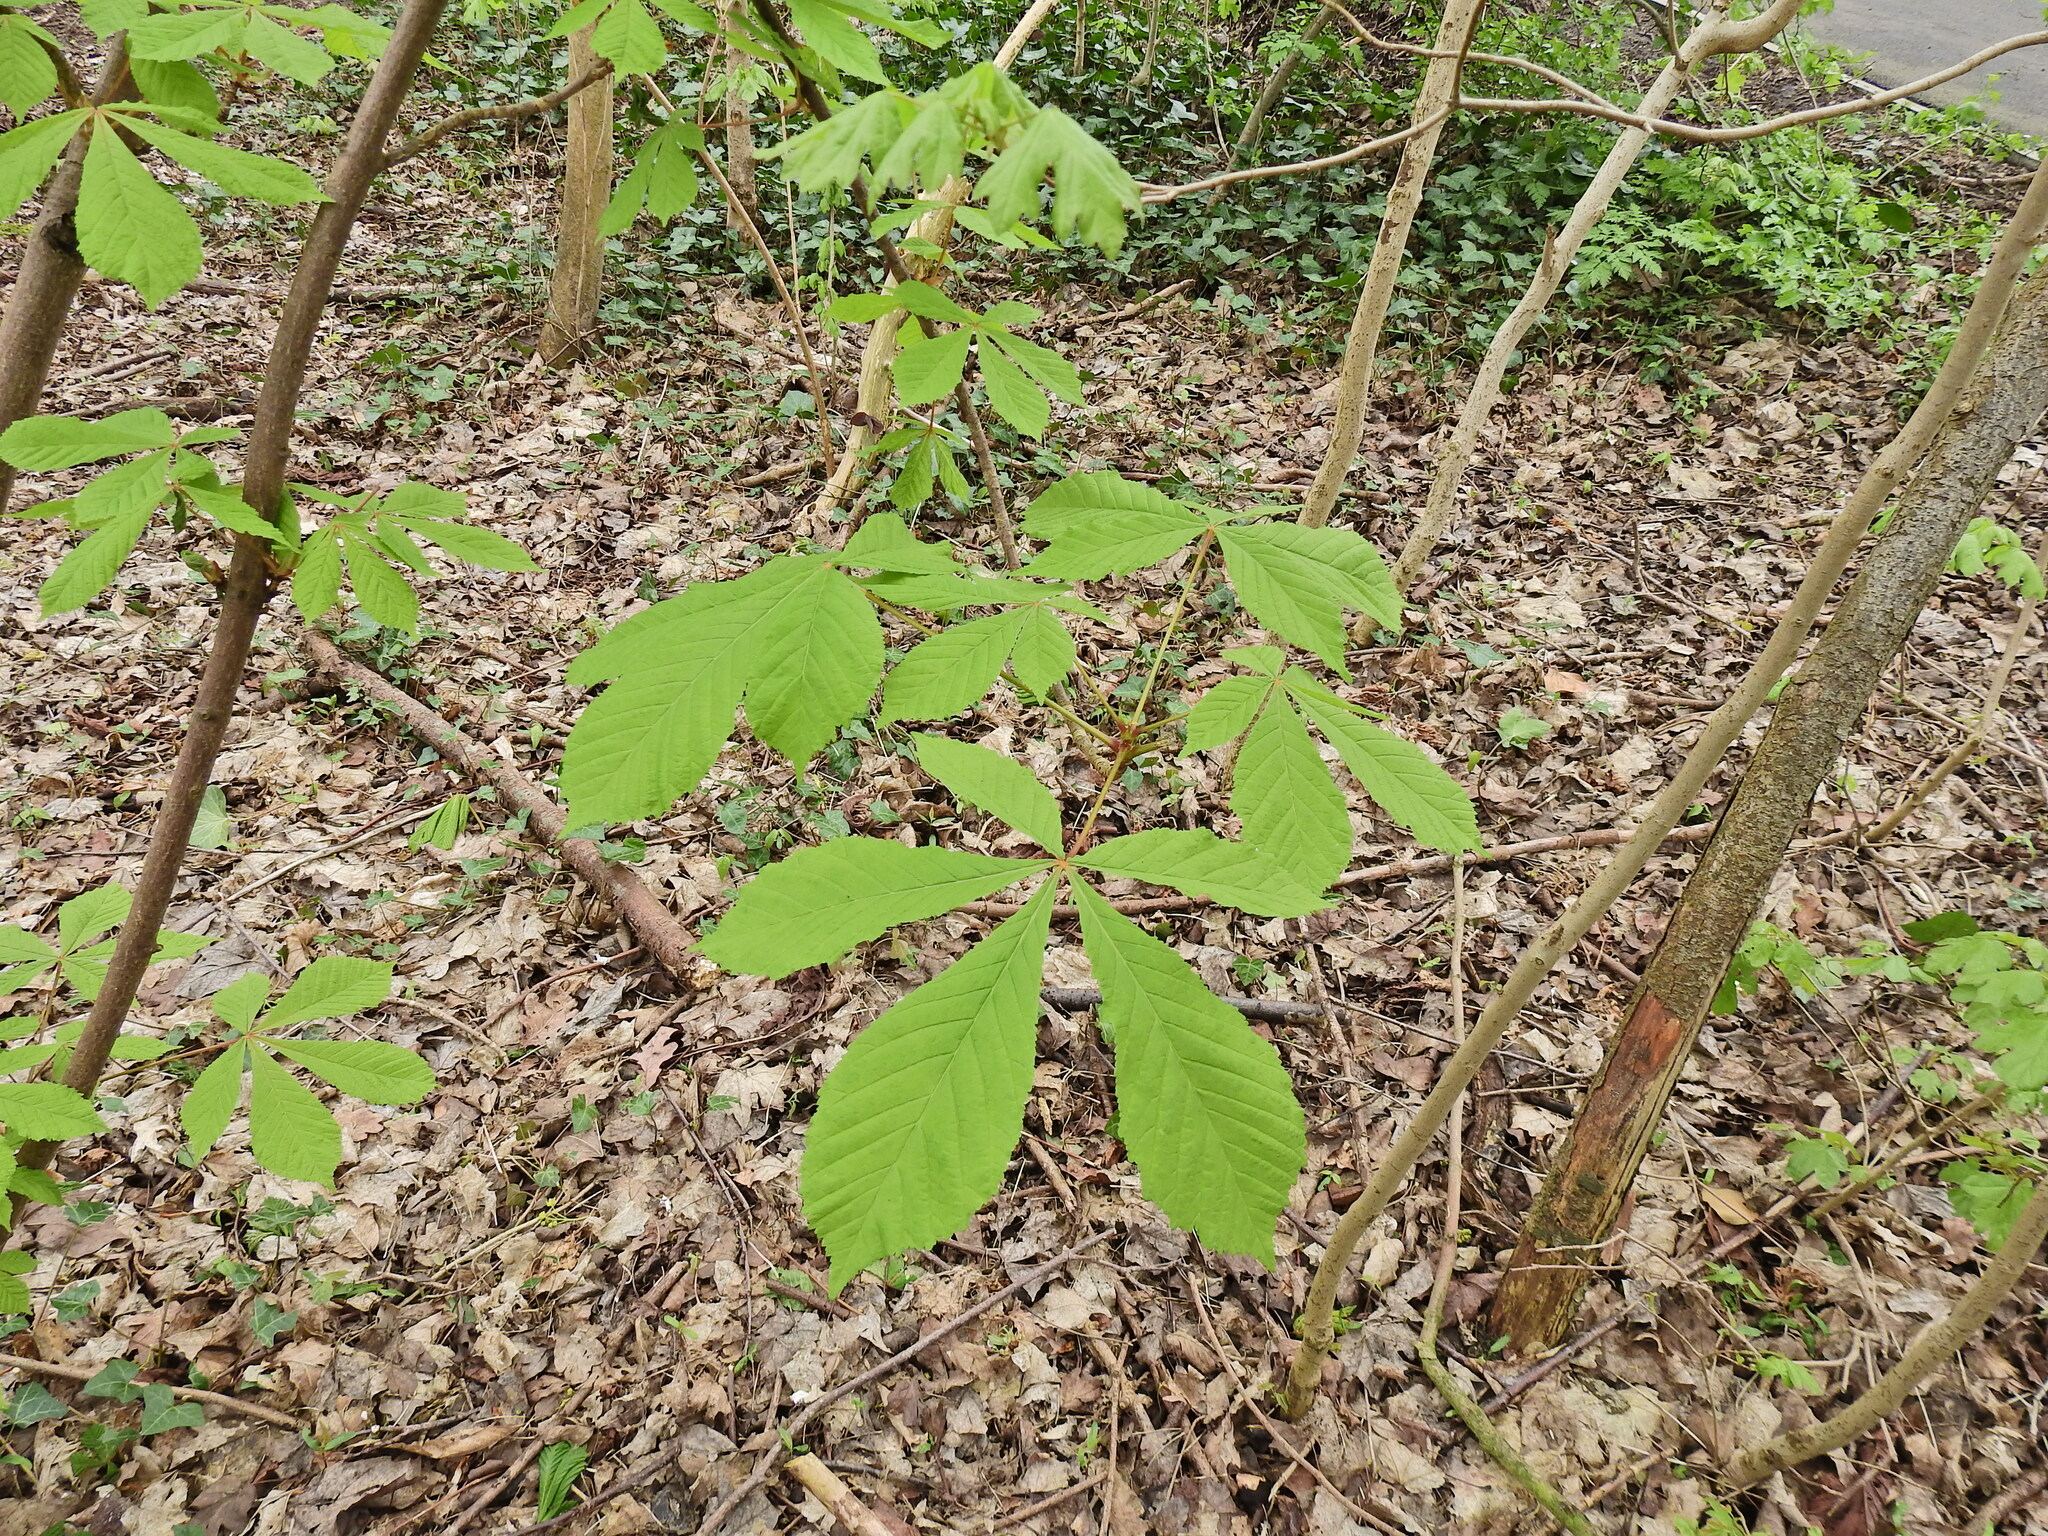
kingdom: Plantae
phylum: Tracheophyta
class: Magnoliopsida
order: Sapindales
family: Sapindaceae
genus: Aesculus
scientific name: Aesculus hippocastanum
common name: Horse-chestnut
